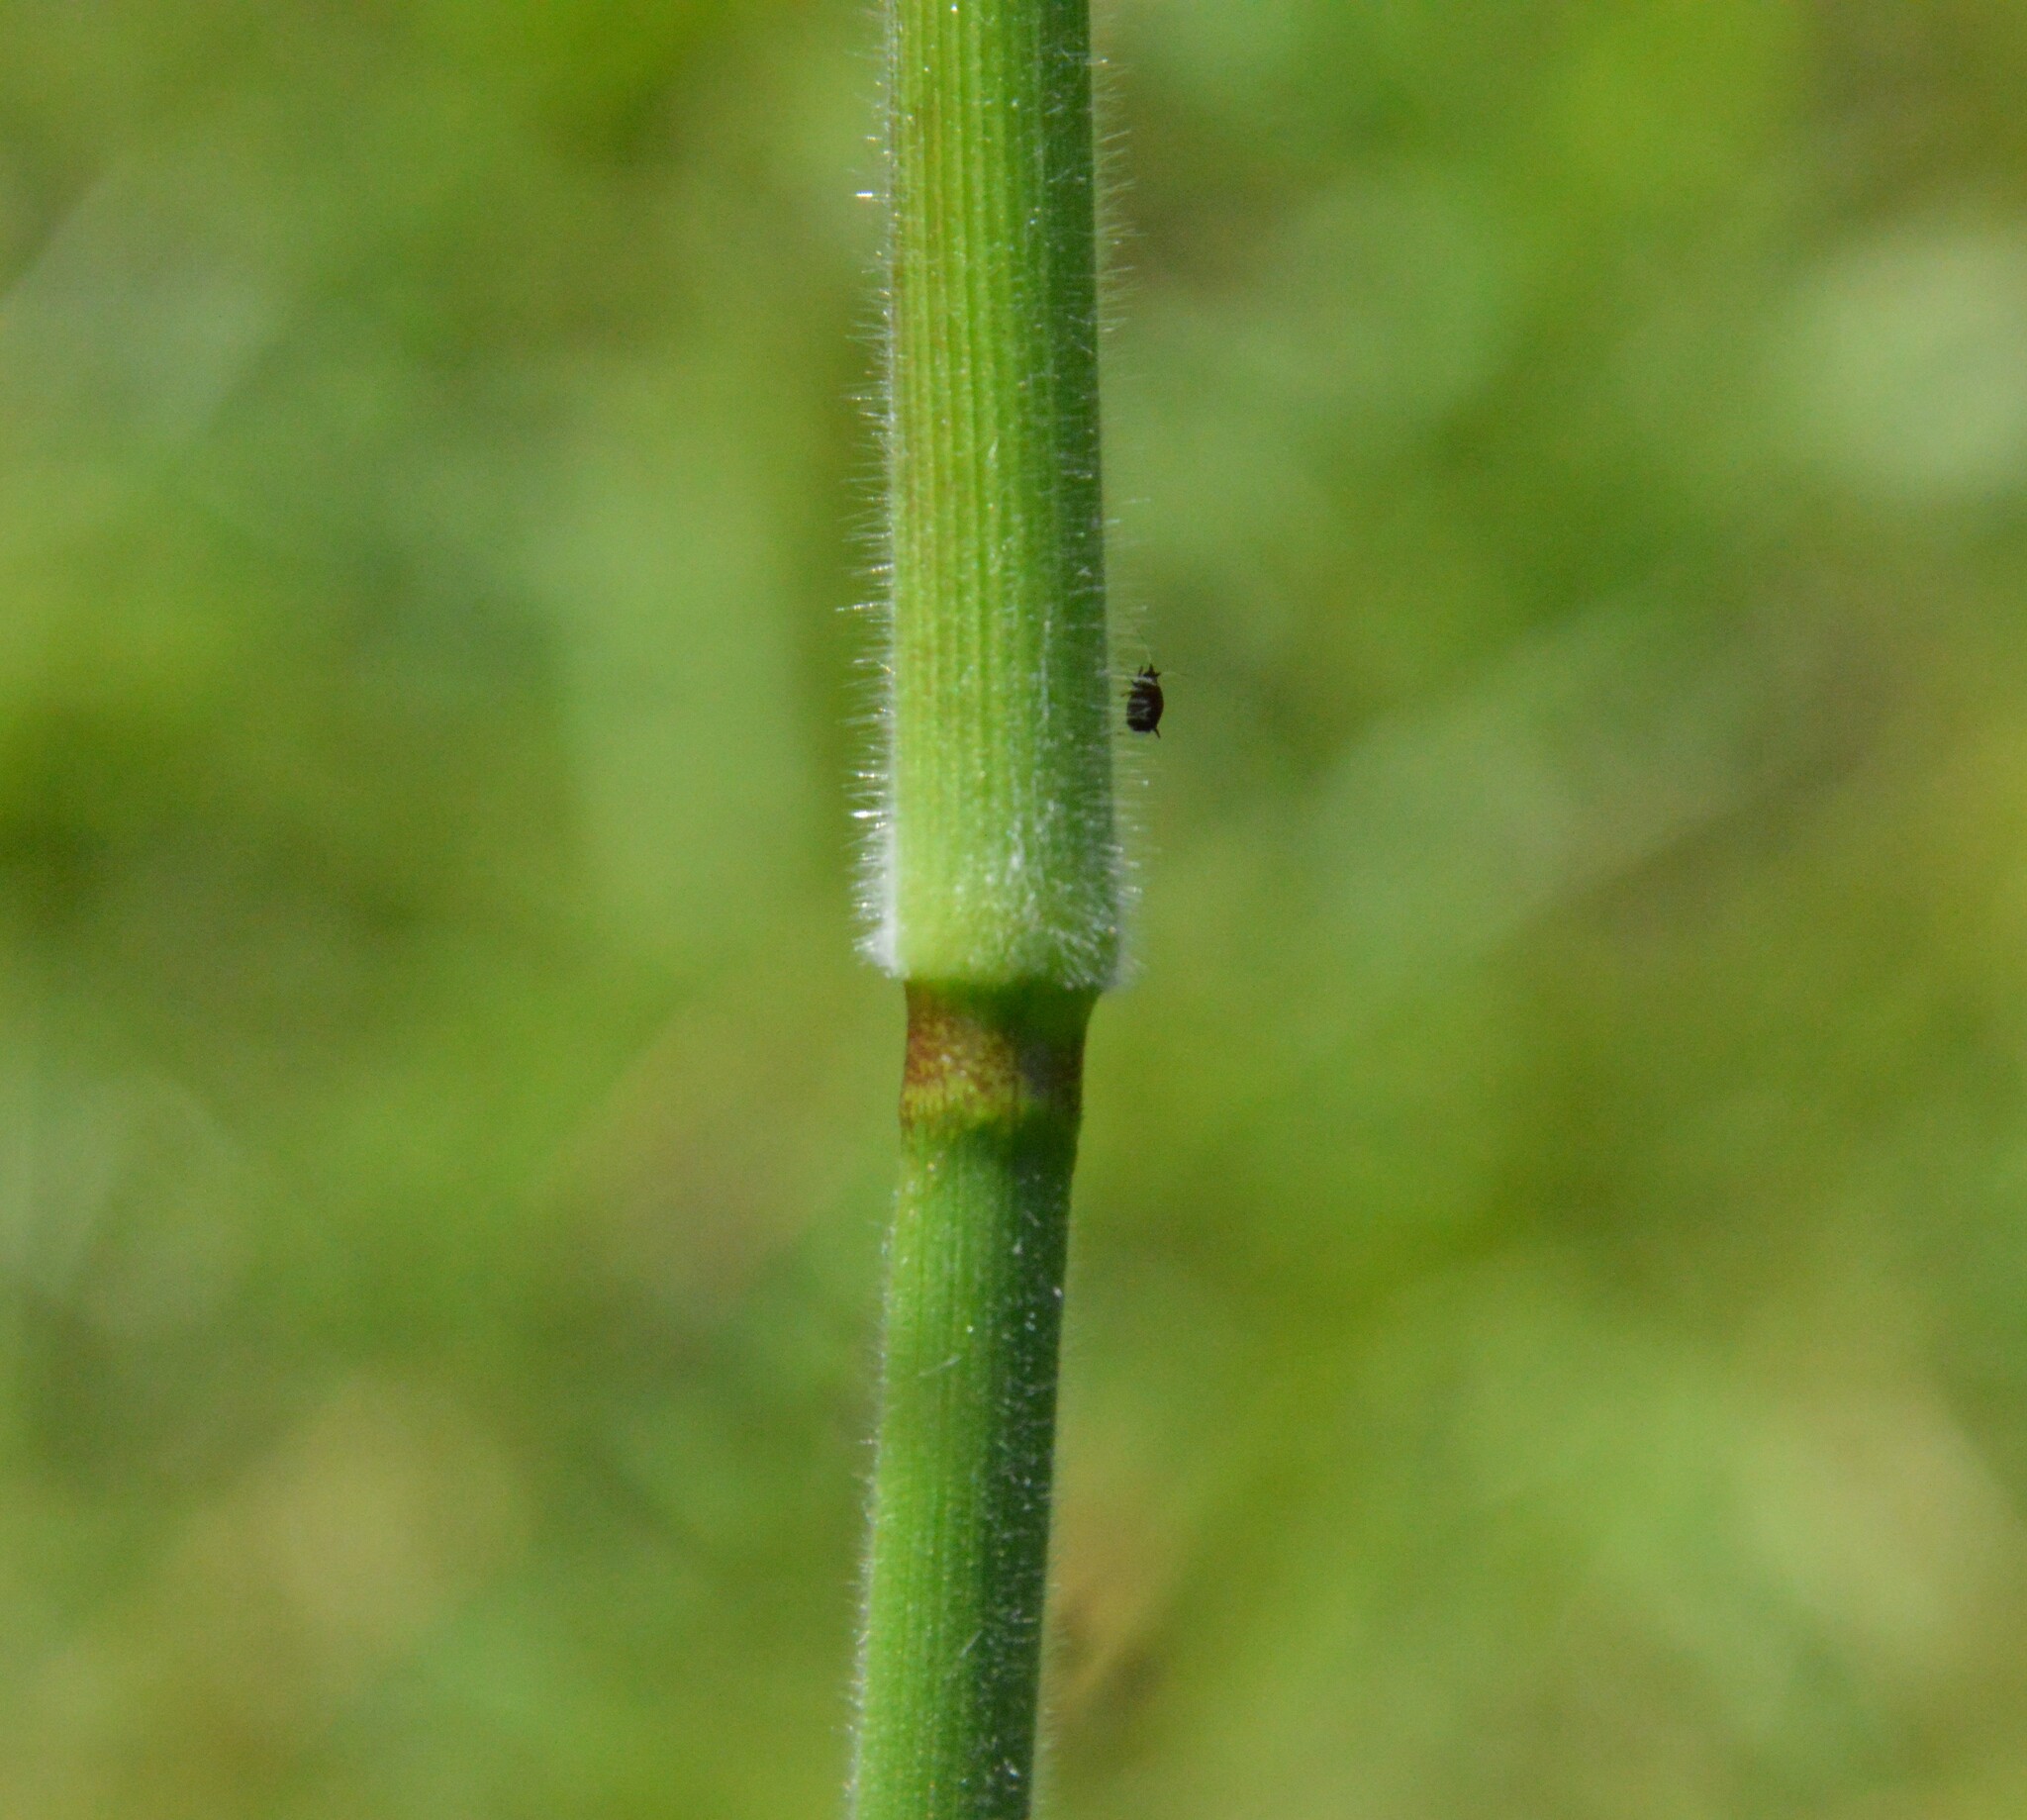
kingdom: Plantae
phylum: Tracheophyta
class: Liliopsida
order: Poales
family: Poaceae
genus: Dichanthelium
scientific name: Dichanthelium scoparium
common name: Velvety panic grass
